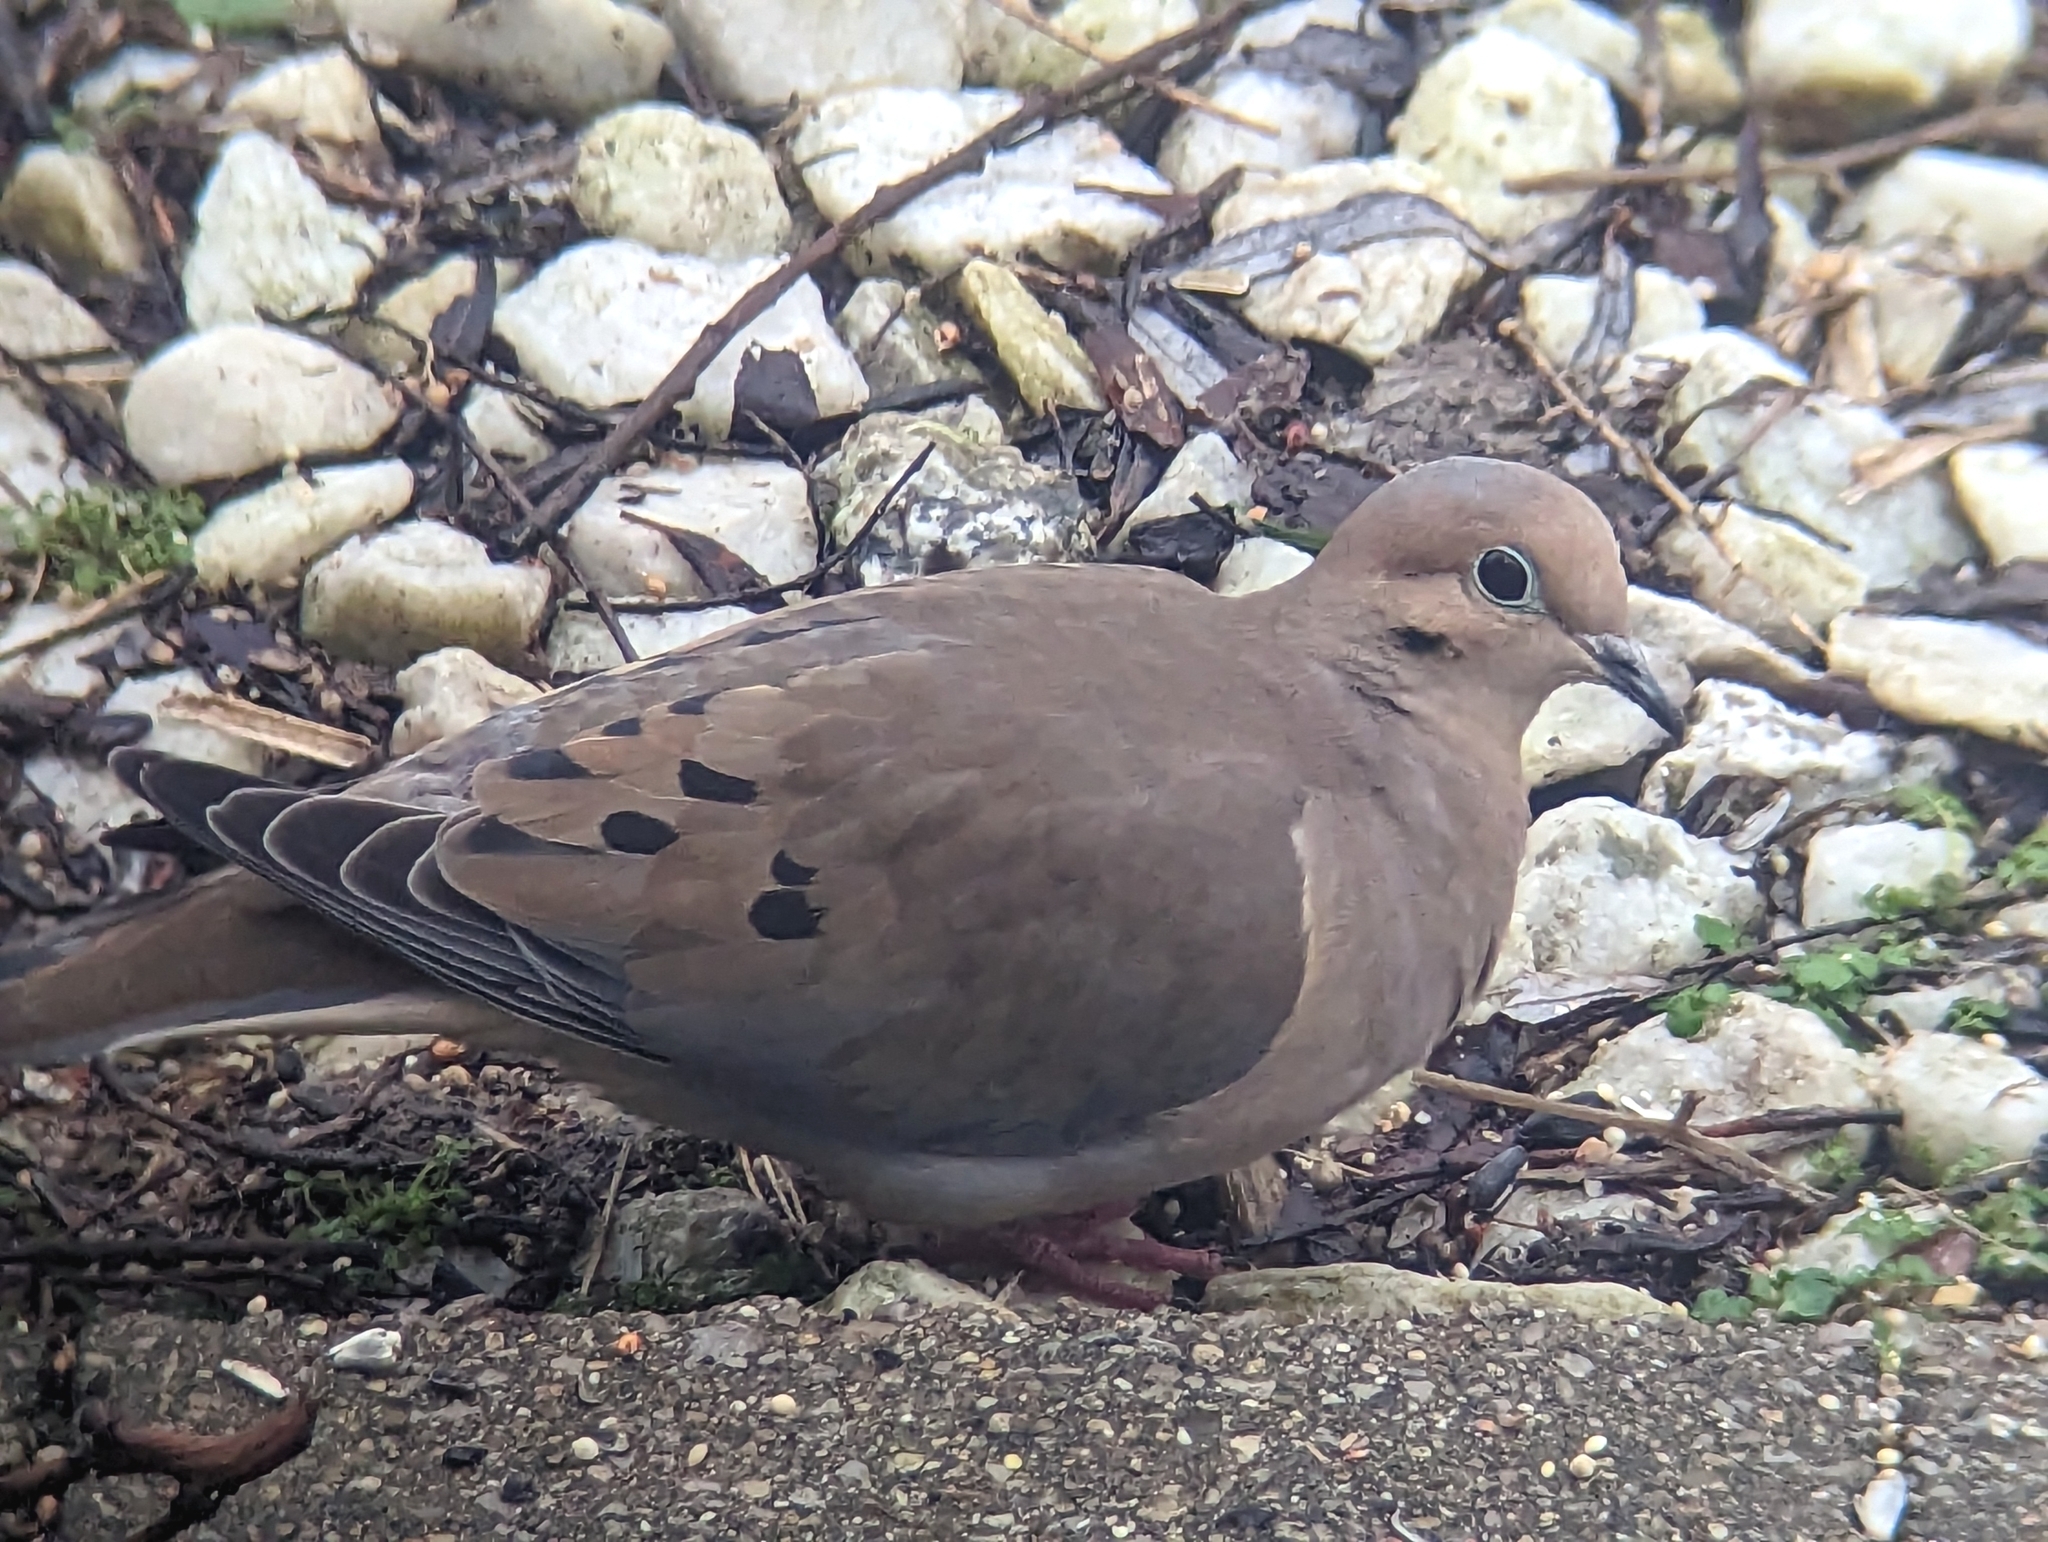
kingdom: Animalia
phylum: Chordata
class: Aves
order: Columbiformes
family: Columbidae
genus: Zenaida
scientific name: Zenaida macroura
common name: Mourning dove
